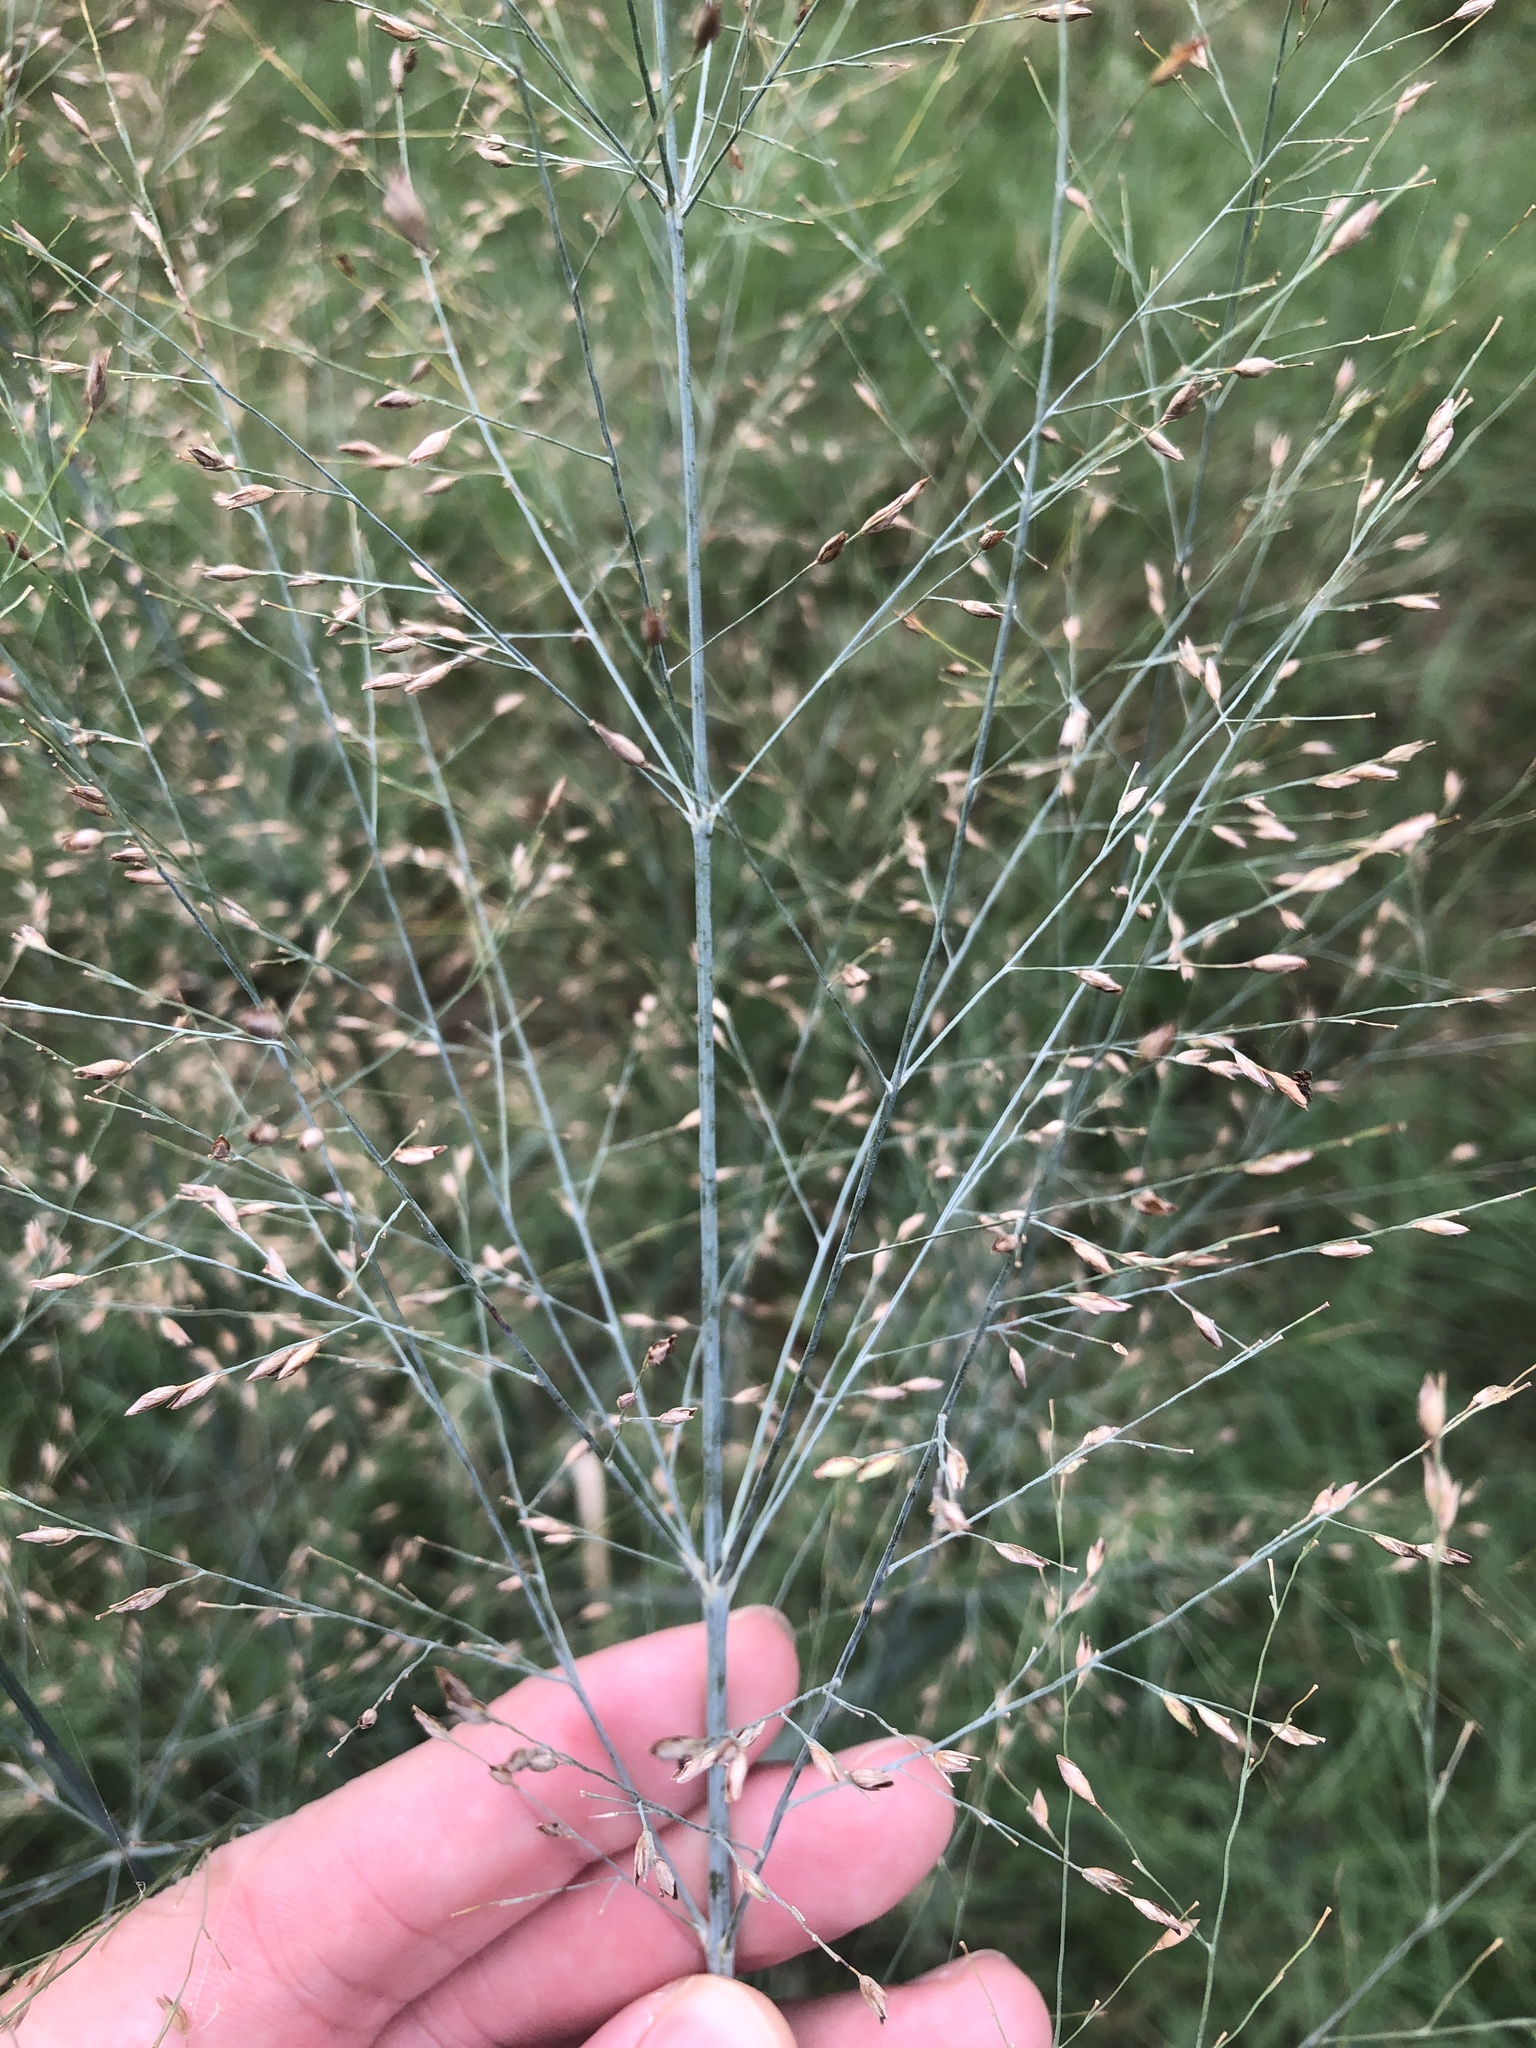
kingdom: Plantae
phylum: Tracheophyta
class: Liliopsida
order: Poales
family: Poaceae
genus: Panicum
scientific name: Panicum virgatum
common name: Switchgrass
